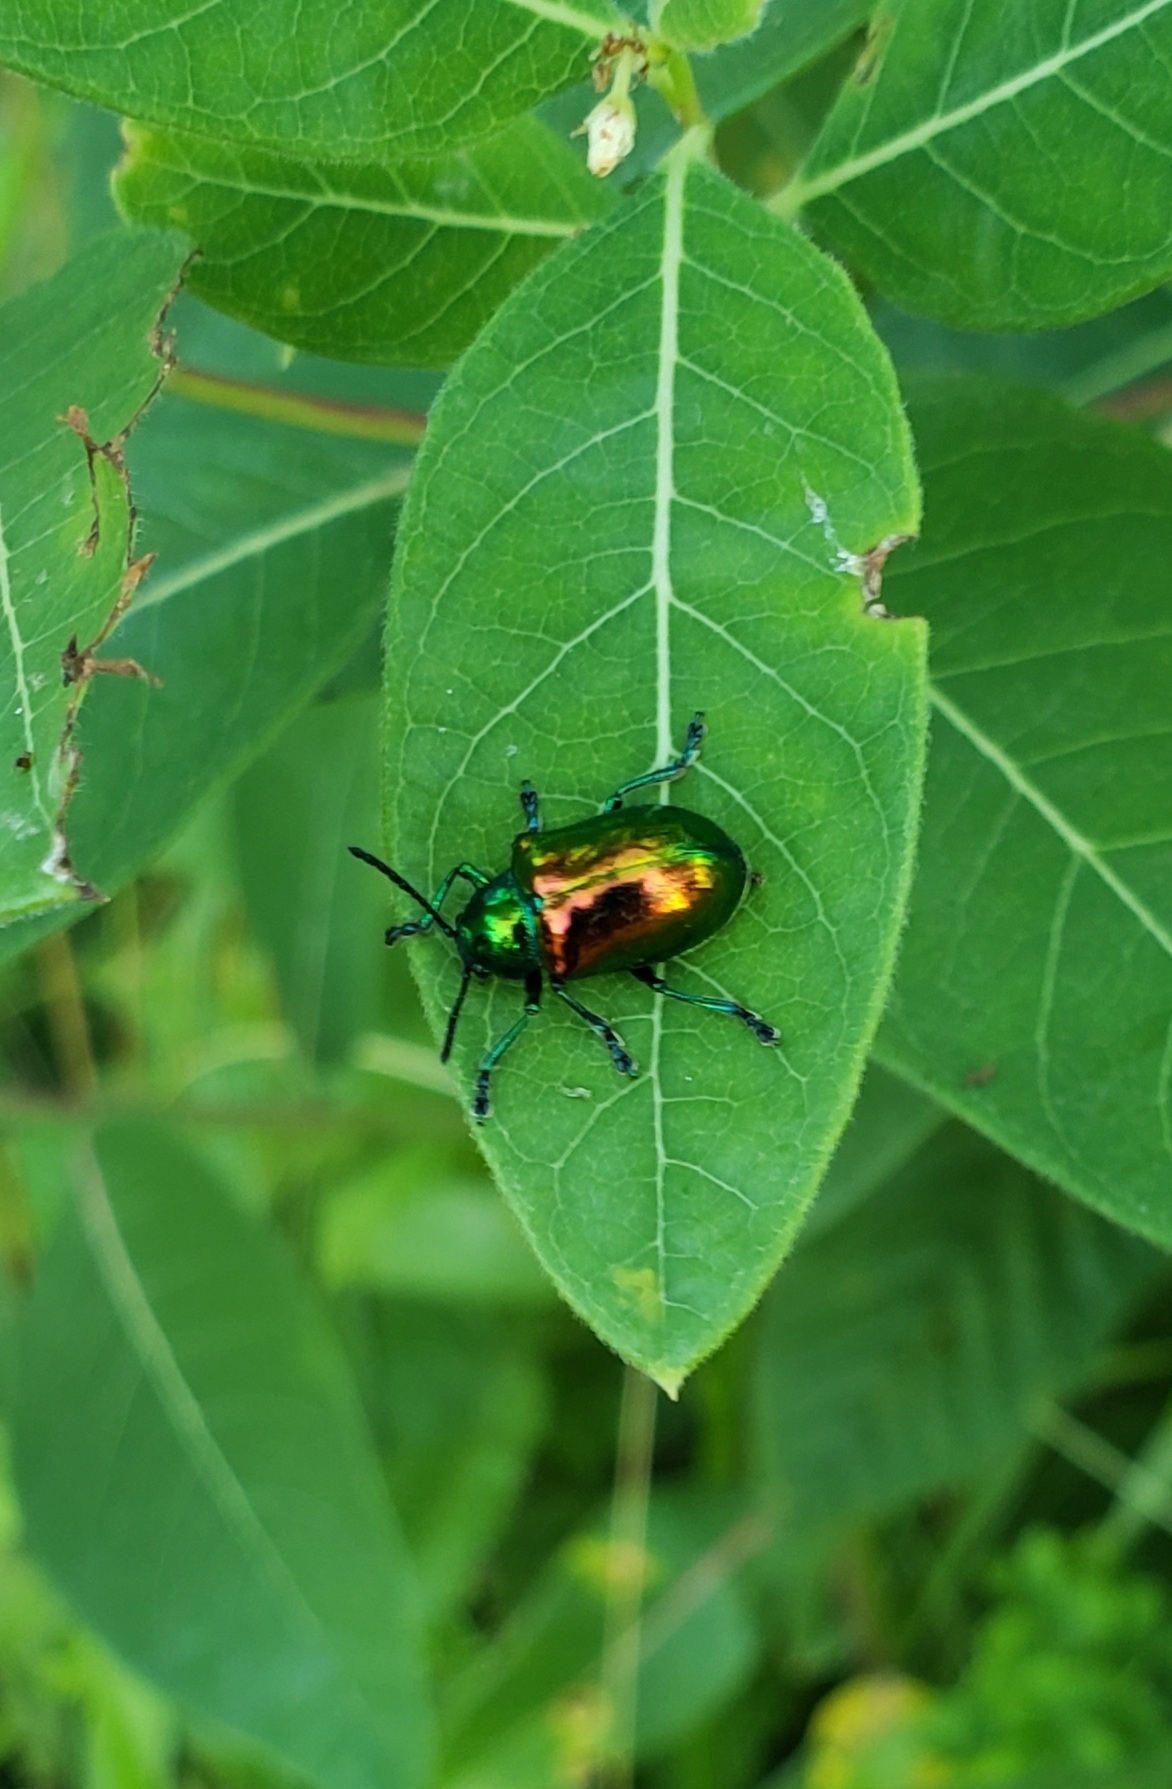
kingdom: Animalia
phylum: Arthropoda
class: Insecta
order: Coleoptera
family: Chrysomelidae
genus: Chrysochus
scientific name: Chrysochus auratus
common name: Dogbane leaf beetle
